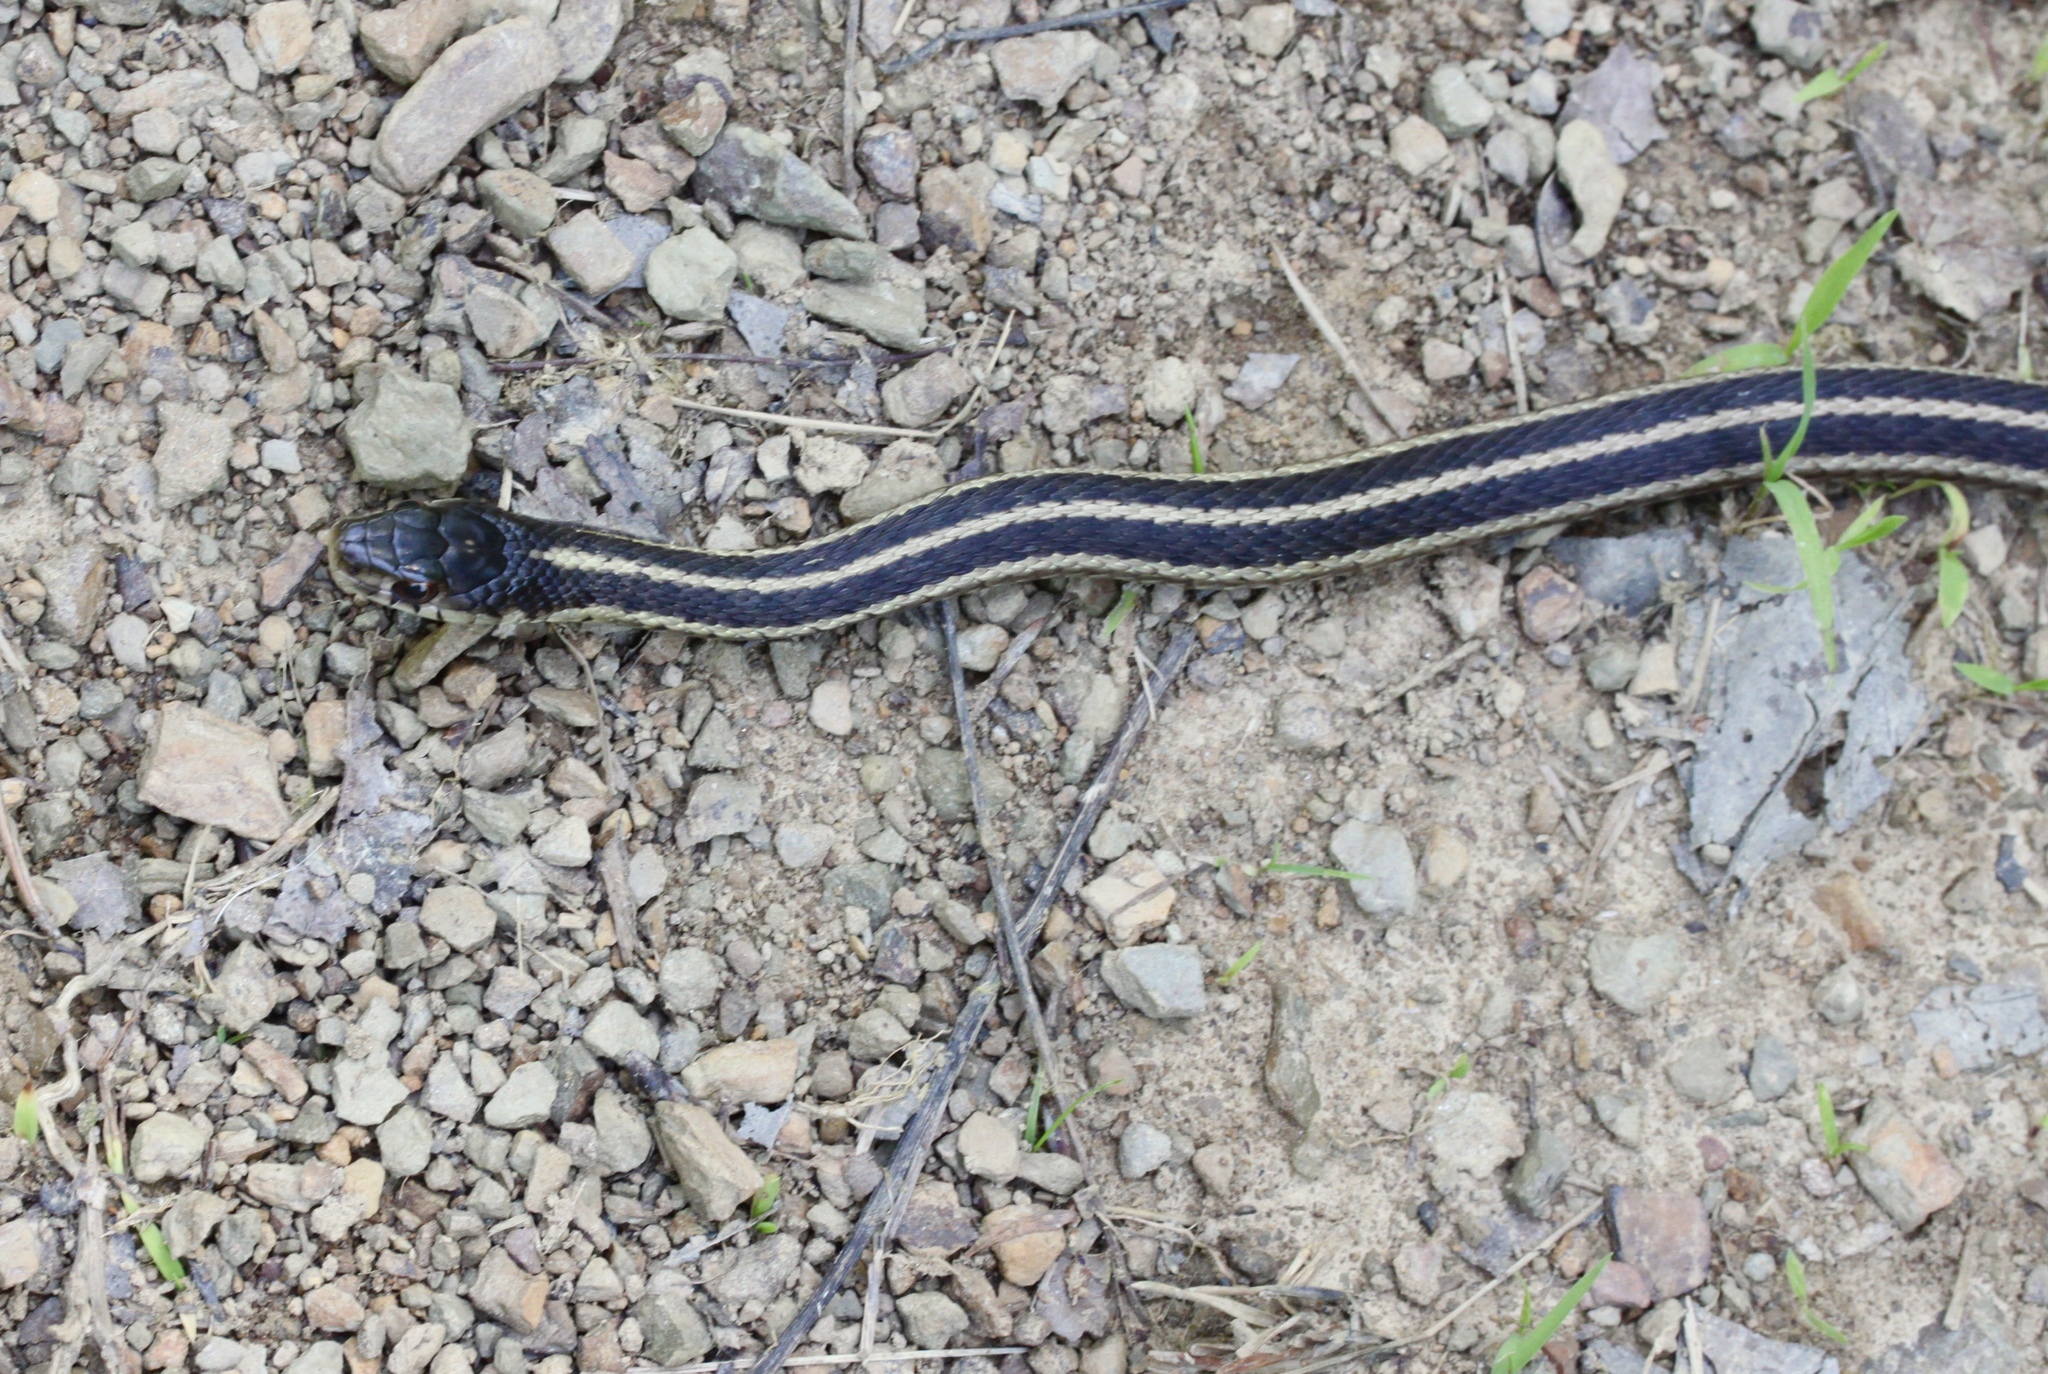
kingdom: Animalia
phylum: Chordata
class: Squamata
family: Colubridae
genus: Thamnophis
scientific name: Thamnophis sirtalis
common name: Common garter snake
